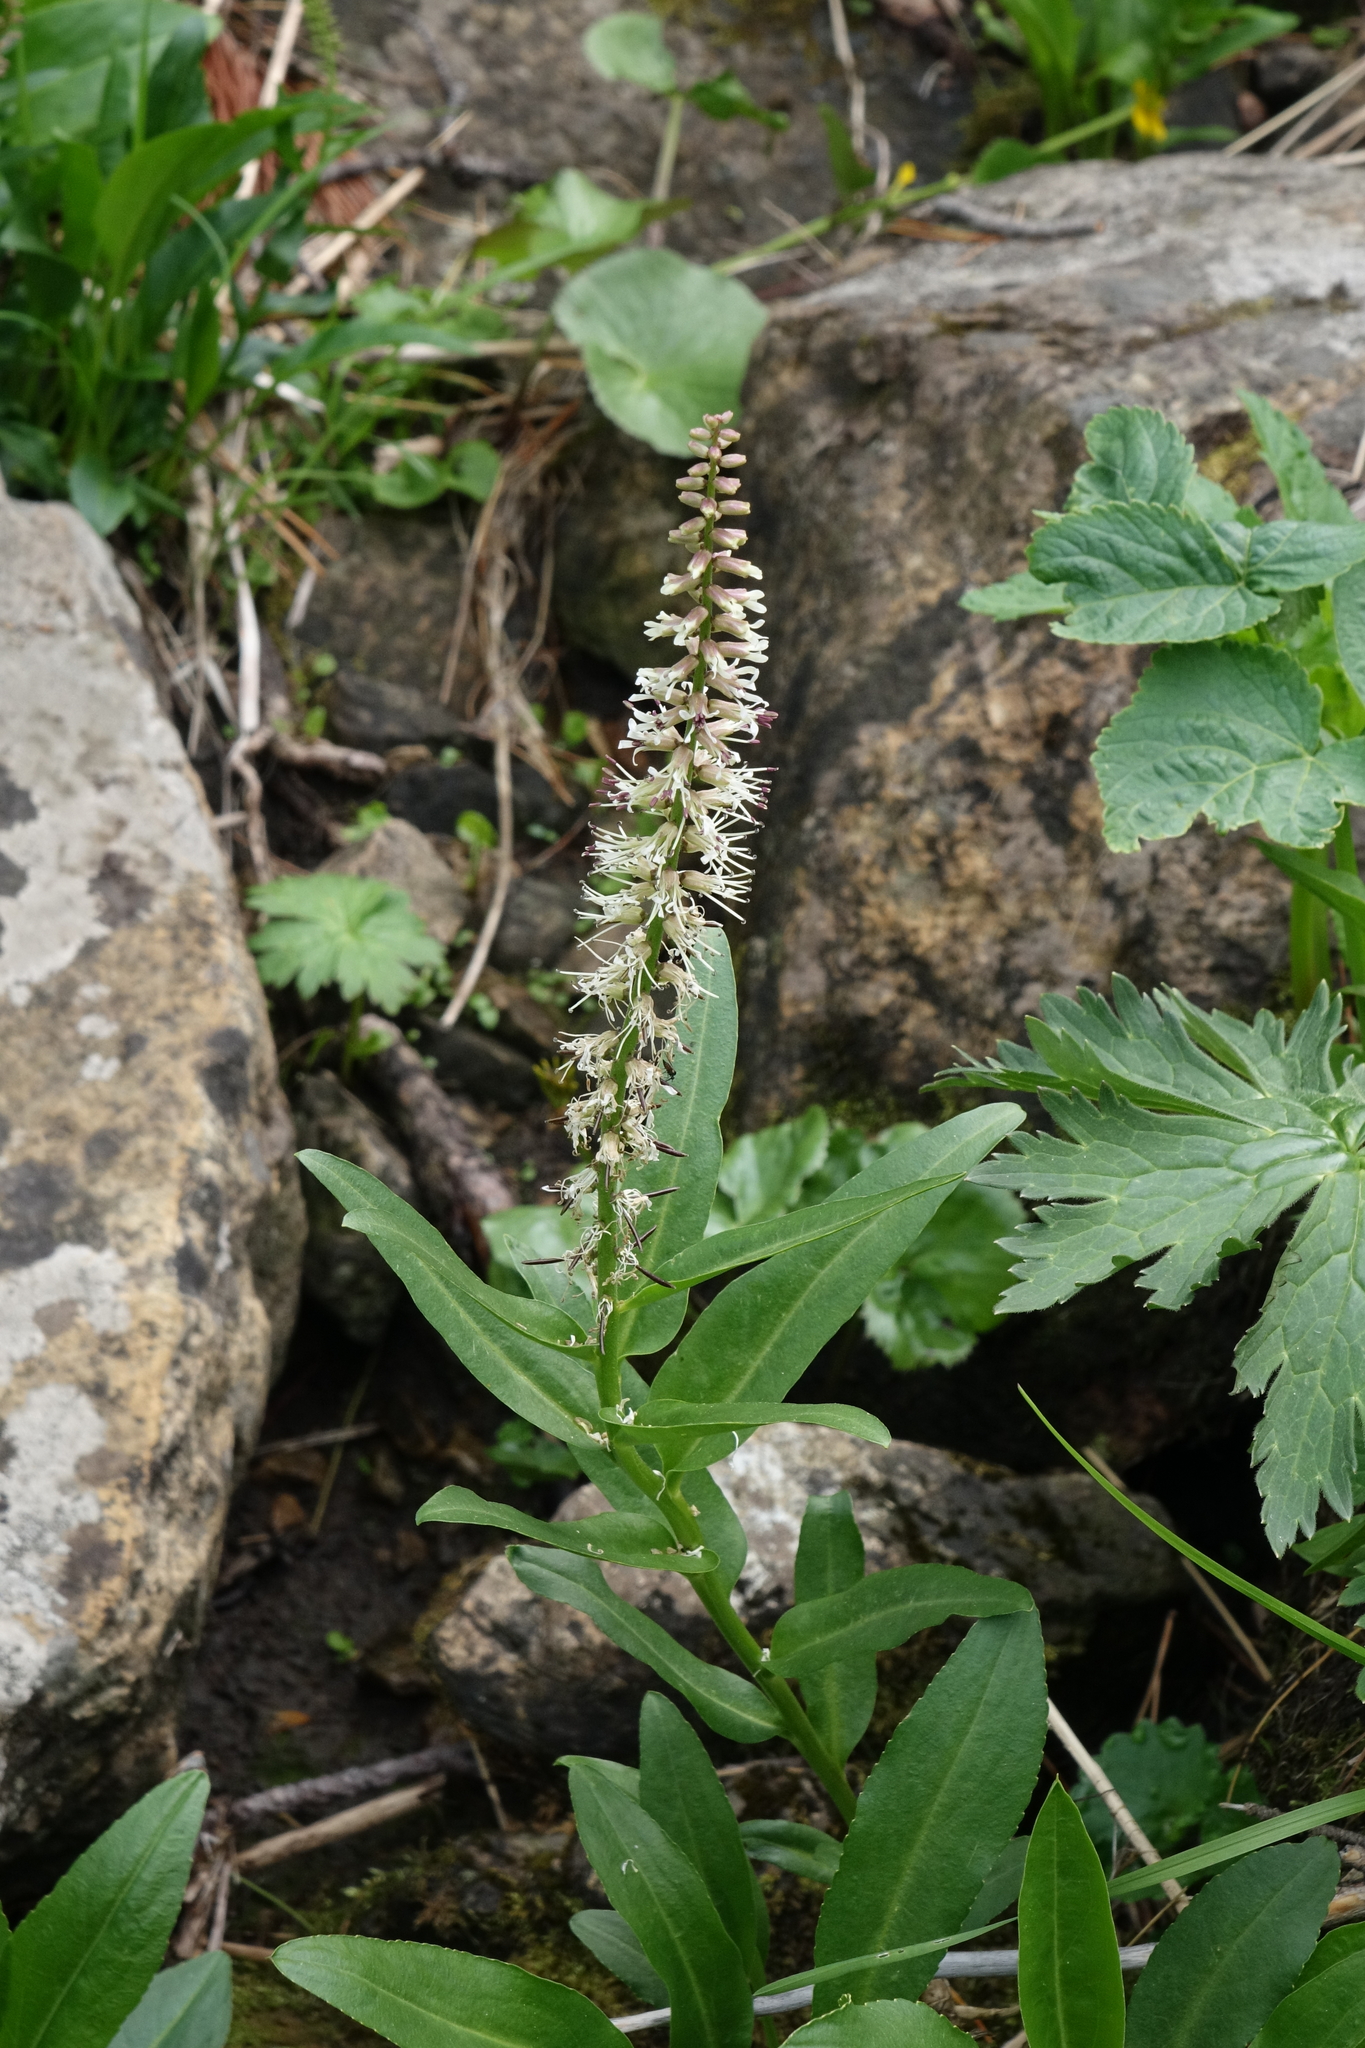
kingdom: Plantae
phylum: Tracheophyta
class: Magnoliopsida
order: Brassicales
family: Brassicaceae
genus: Macropodium
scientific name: Macropodium nivale
